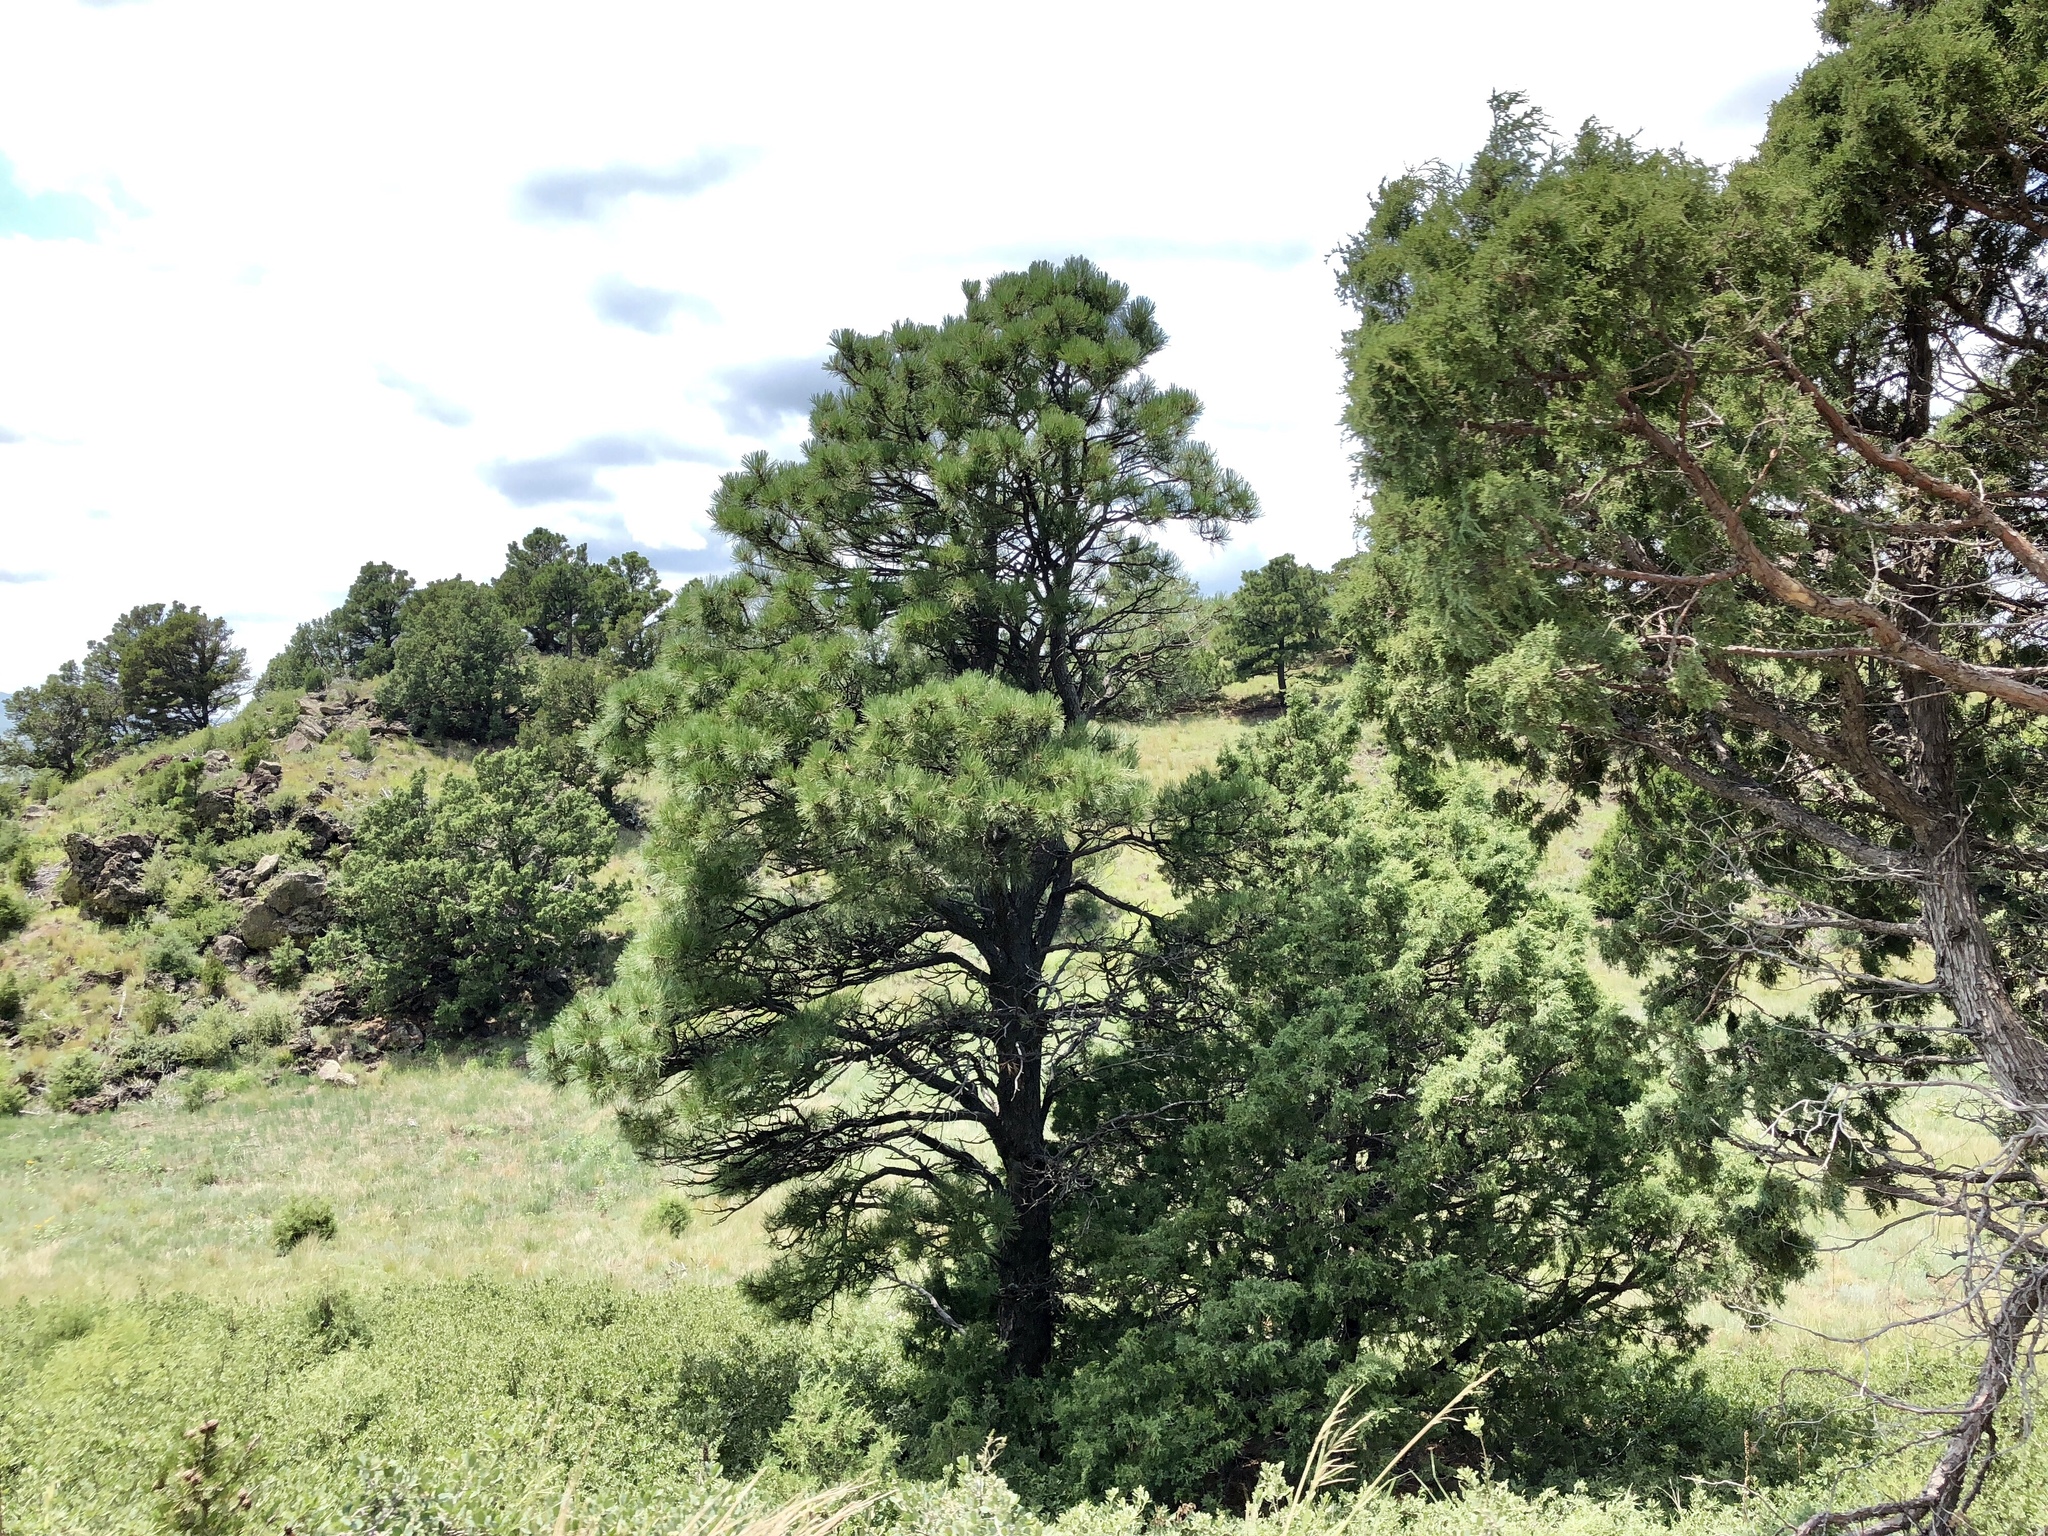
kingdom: Plantae
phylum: Tracheophyta
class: Pinopsida
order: Pinales
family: Pinaceae
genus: Pinus
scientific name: Pinus ponderosa
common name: Western yellow-pine
